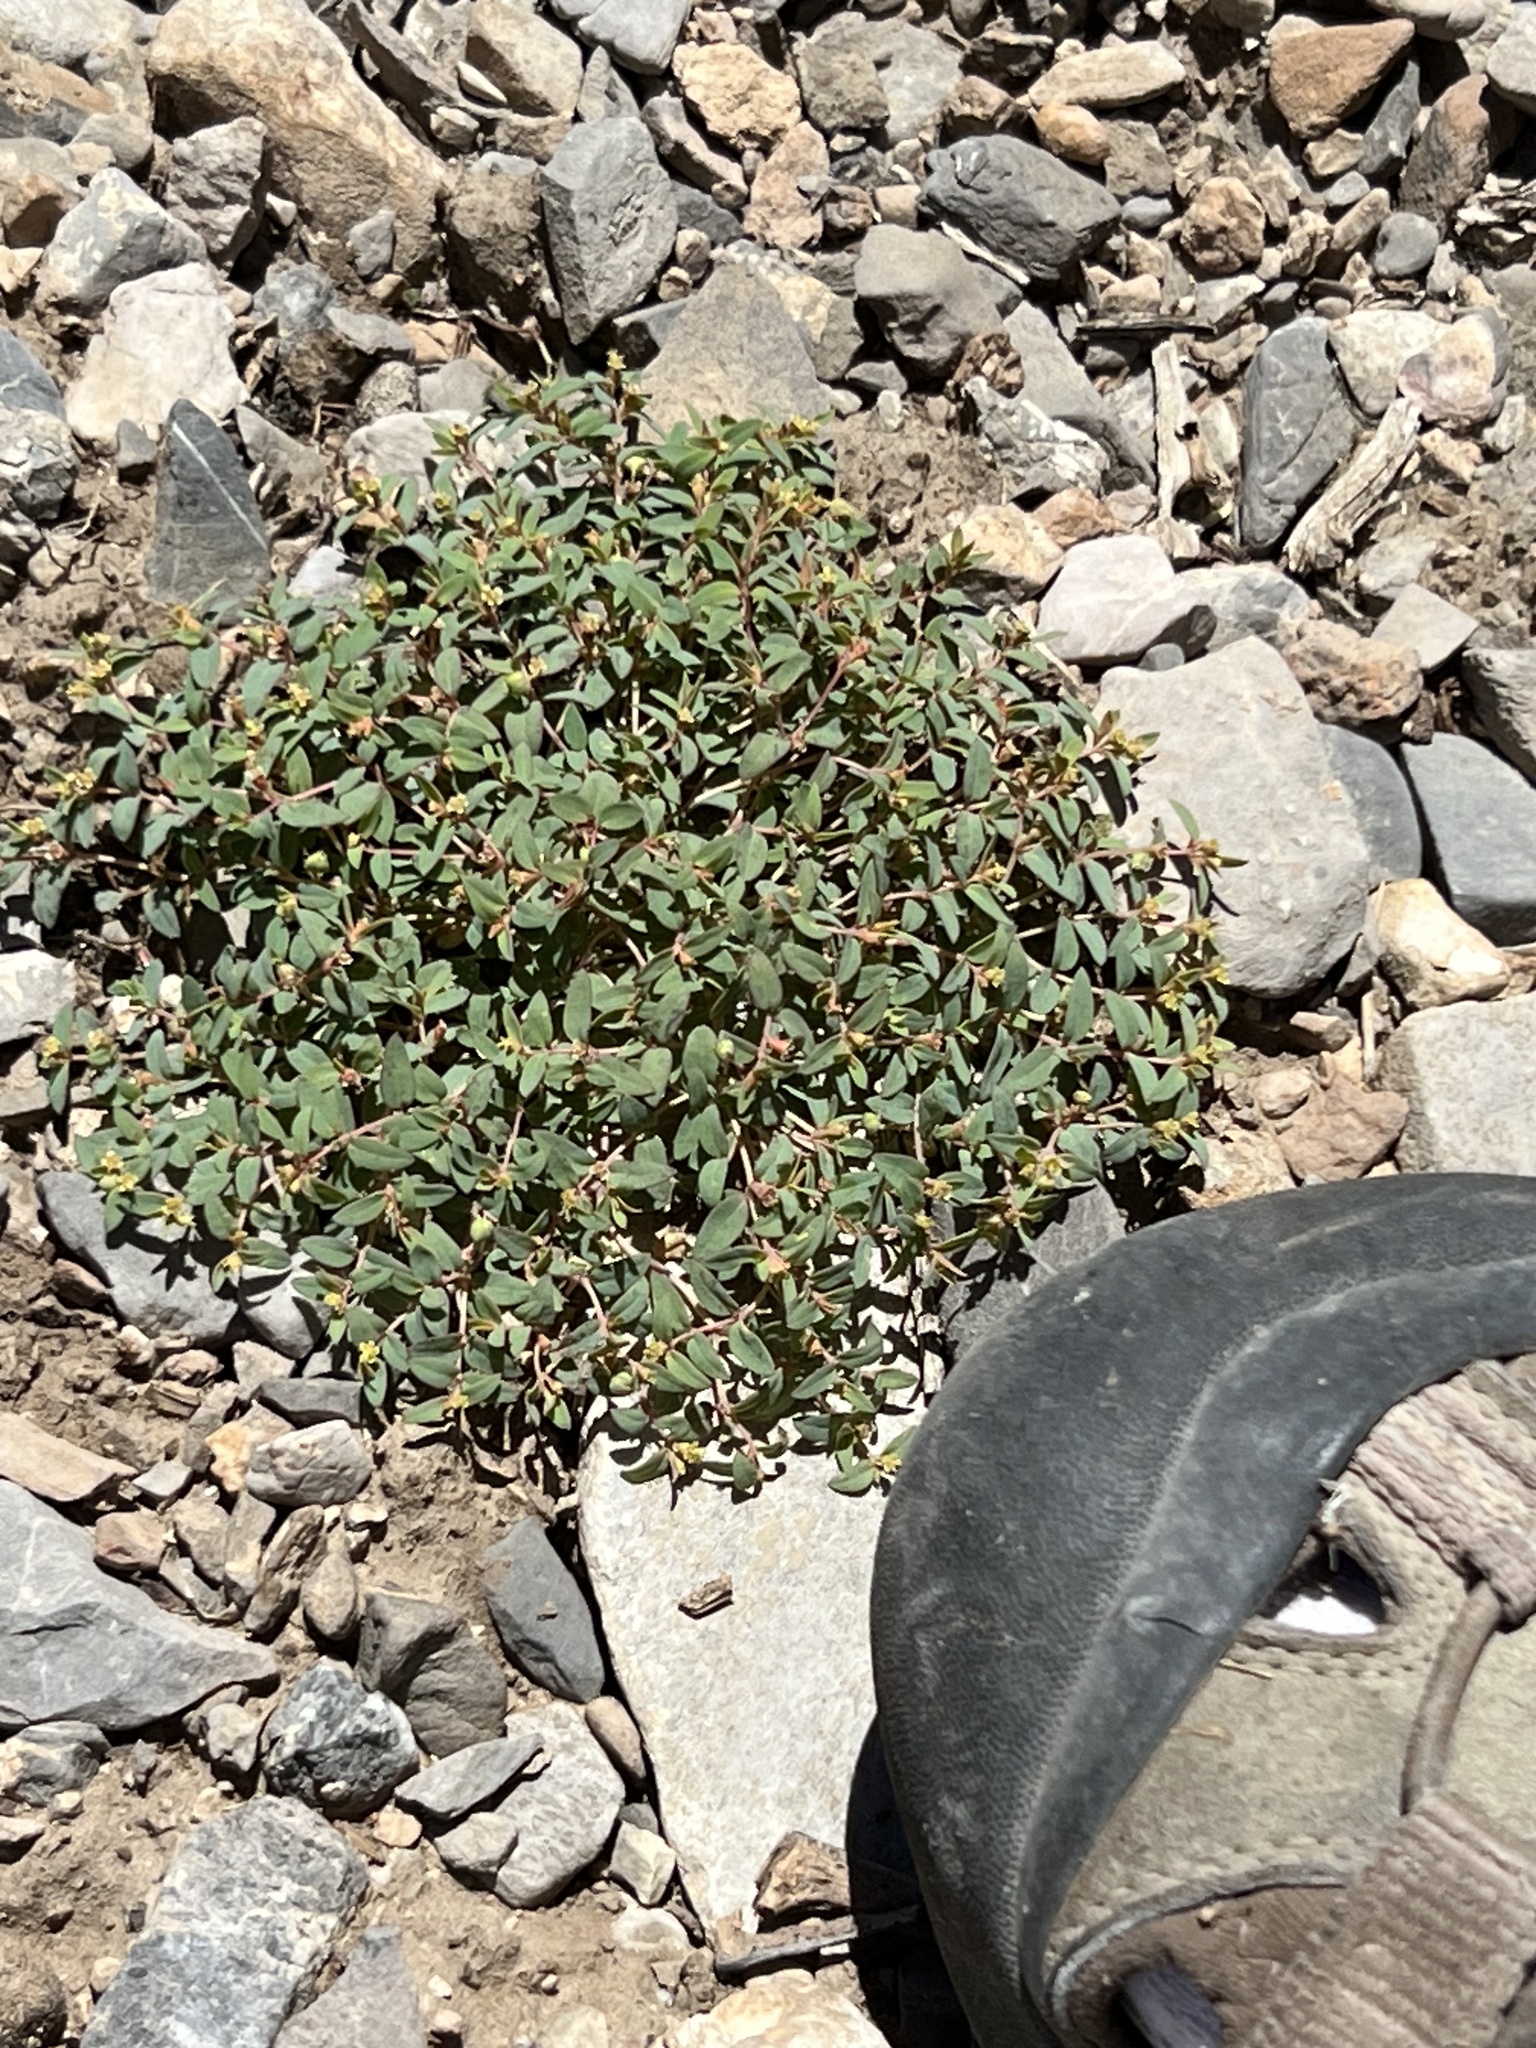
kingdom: Plantae
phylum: Tracheophyta
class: Magnoliopsida
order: Malpighiales
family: Euphorbiaceae
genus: Euphorbia
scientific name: Euphorbia fendleri
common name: Fendler's euphorbia
